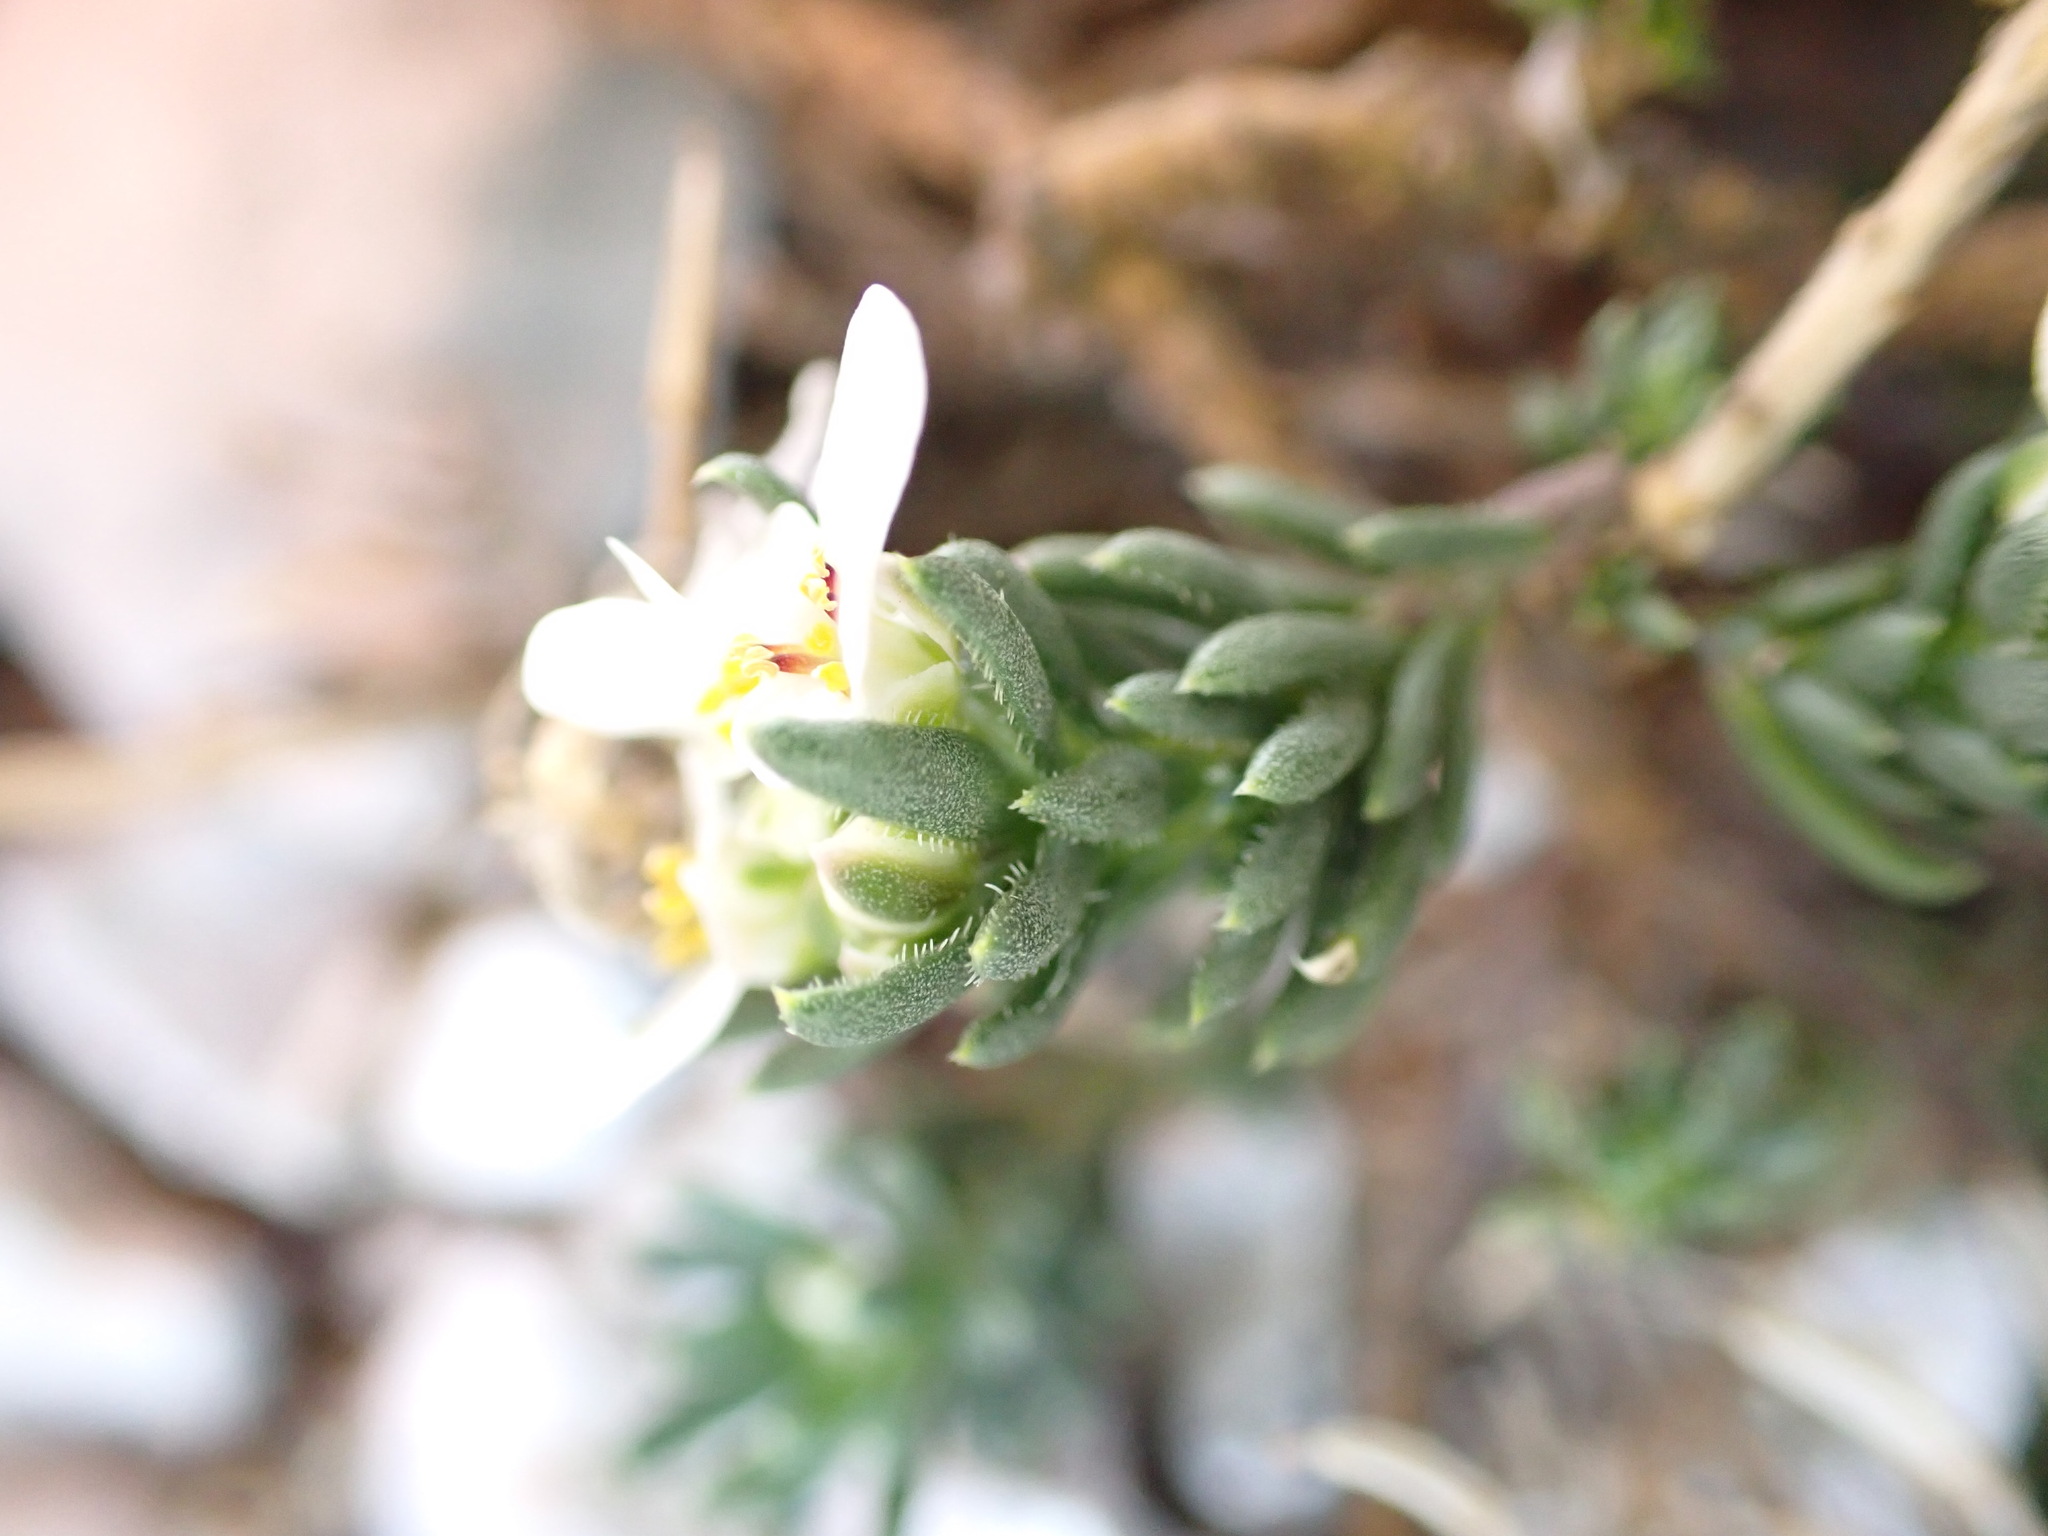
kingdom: Plantae
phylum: Tracheophyta
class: Magnoliopsida
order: Brassicales
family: Brassicaceae
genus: Iberis
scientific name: Iberis saxatilis
